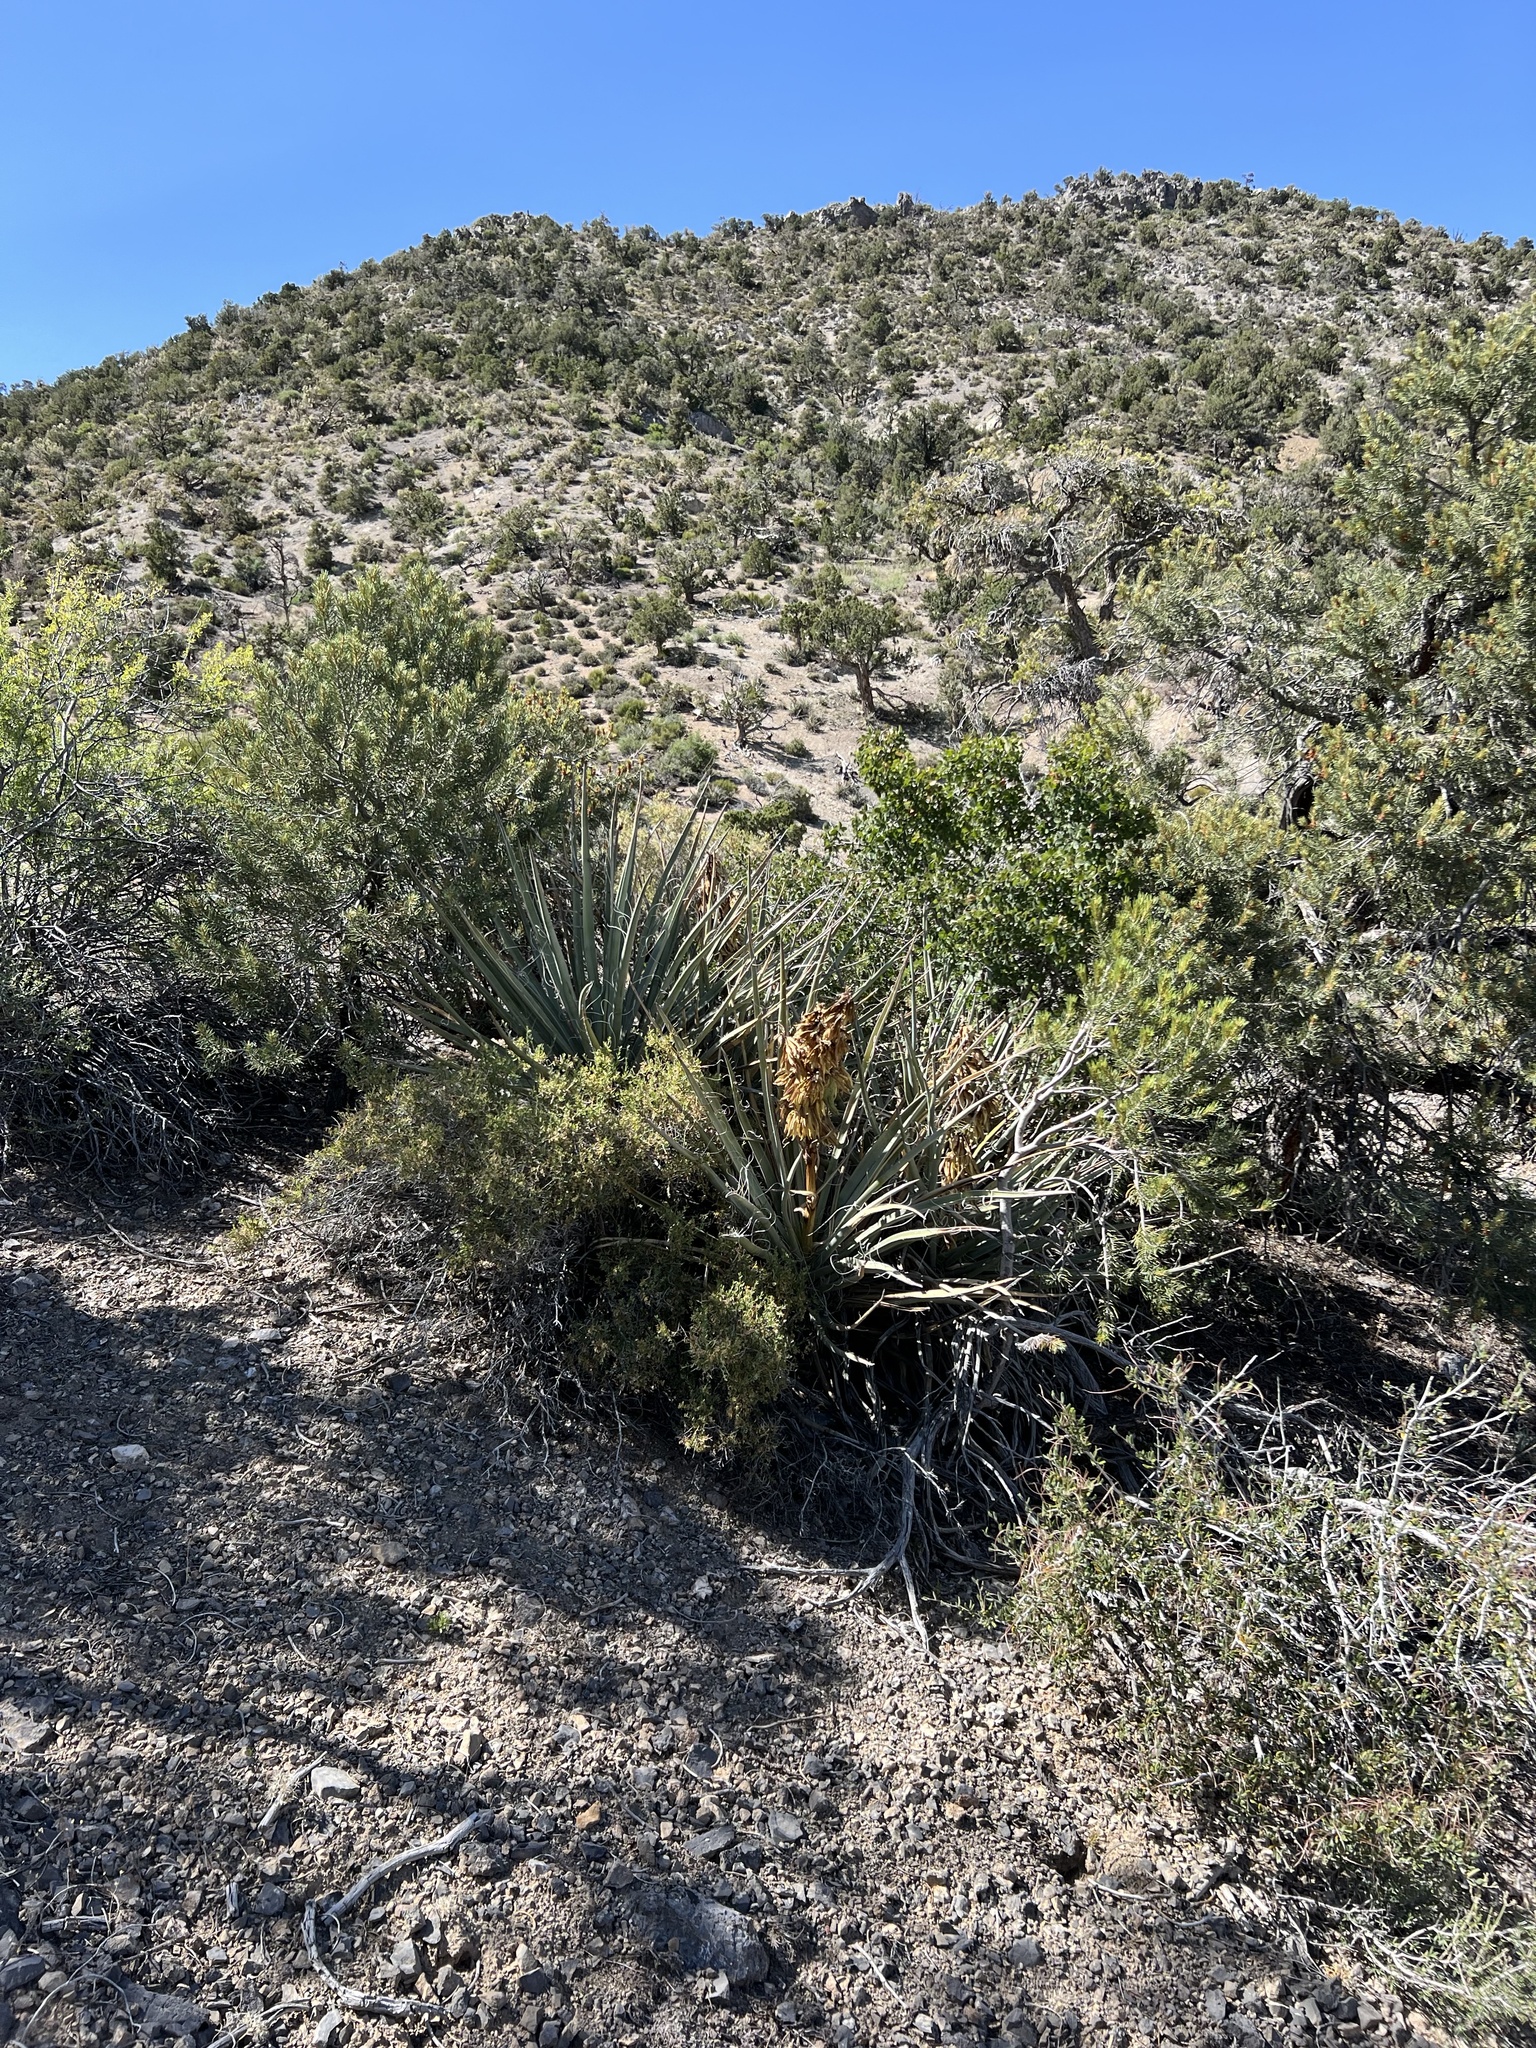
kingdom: Plantae
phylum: Tracheophyta
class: Liliopsida
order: Asparagales
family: Asparagaceae
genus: Yucca
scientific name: Yucca baccata
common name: Banana yucca
